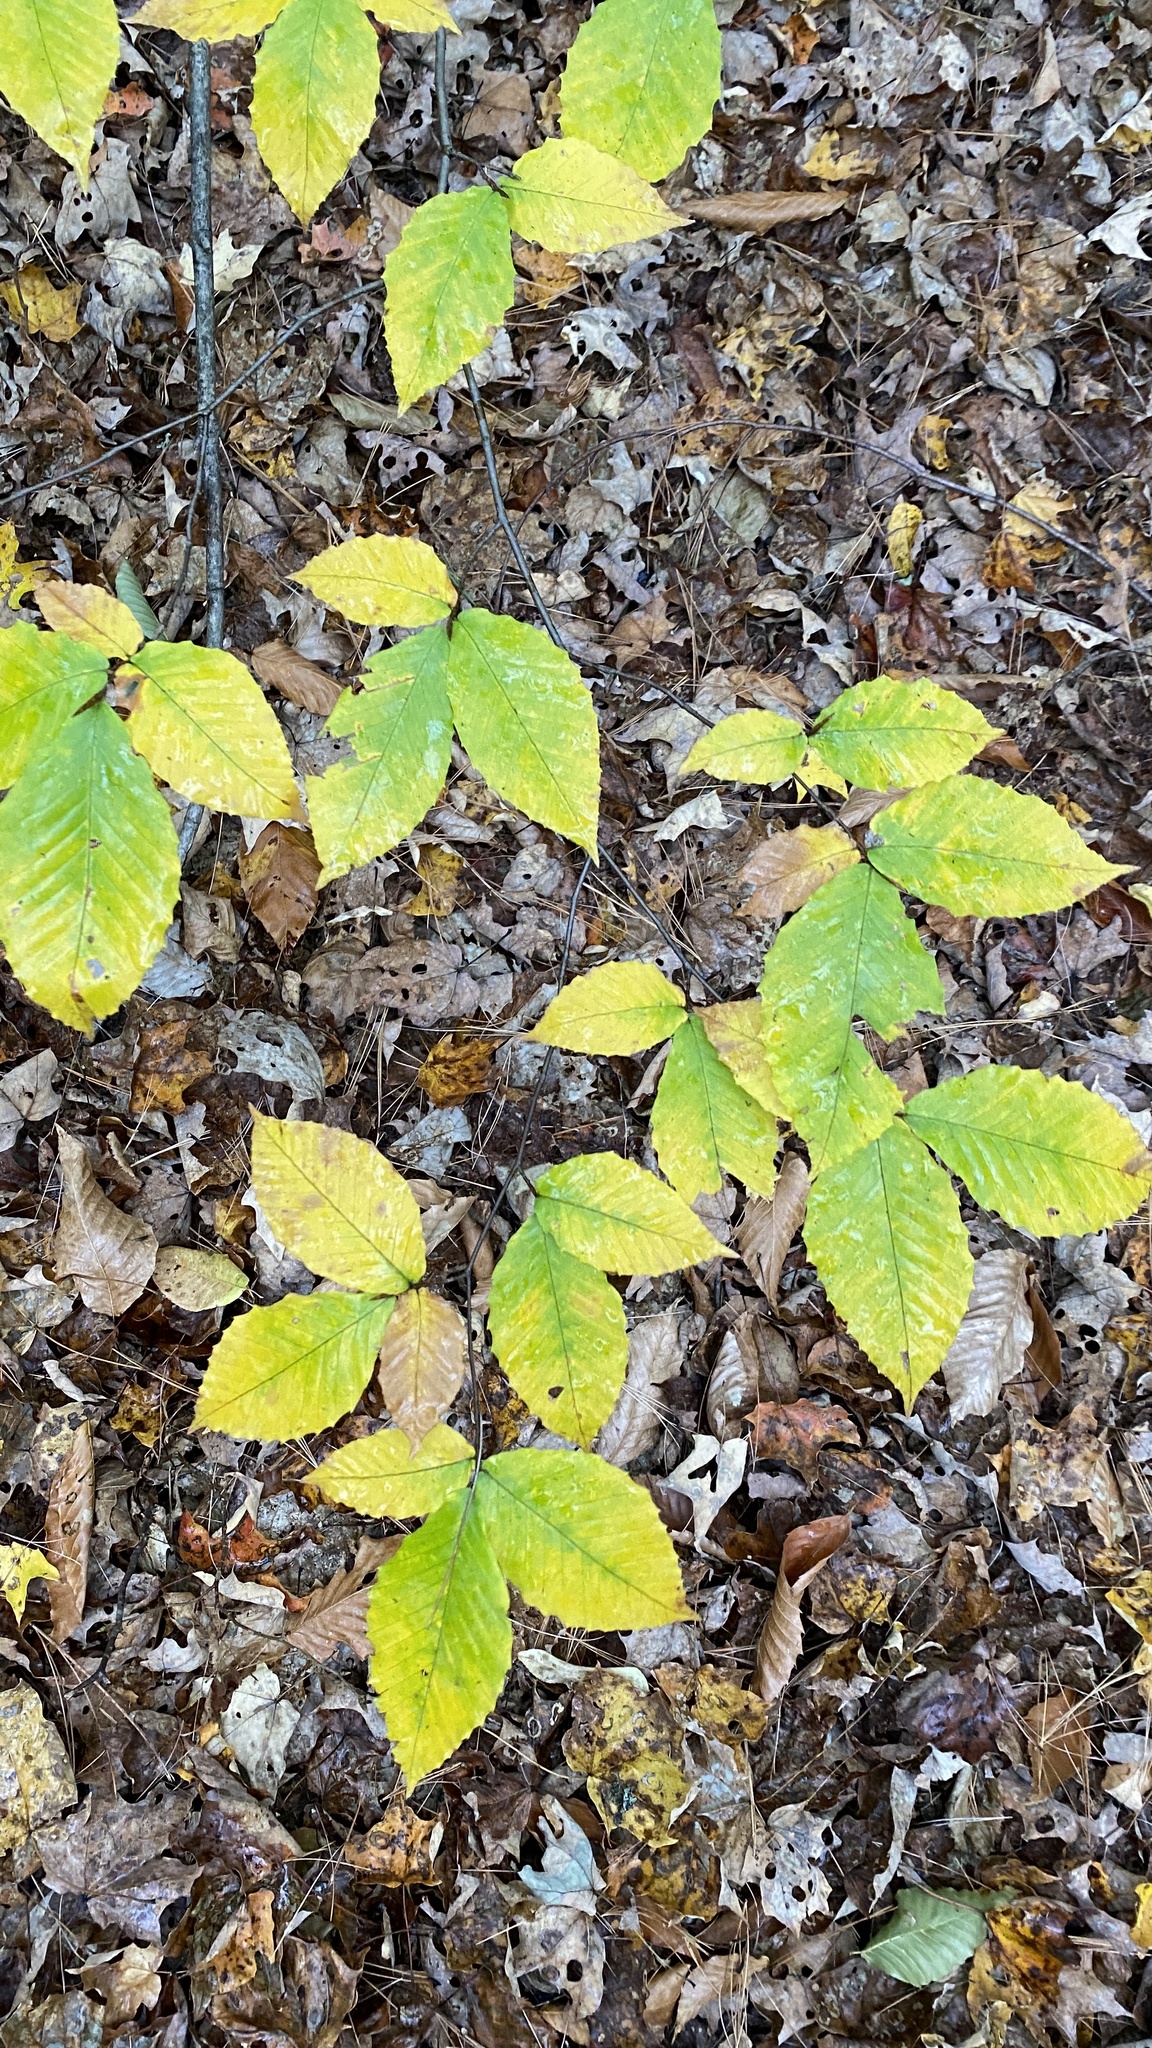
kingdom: Plantae
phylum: Tracheophyta
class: Magnoliopsida
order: Fagales
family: Fagaceae
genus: Fagus
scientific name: Fagus grandifolia
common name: American beech
